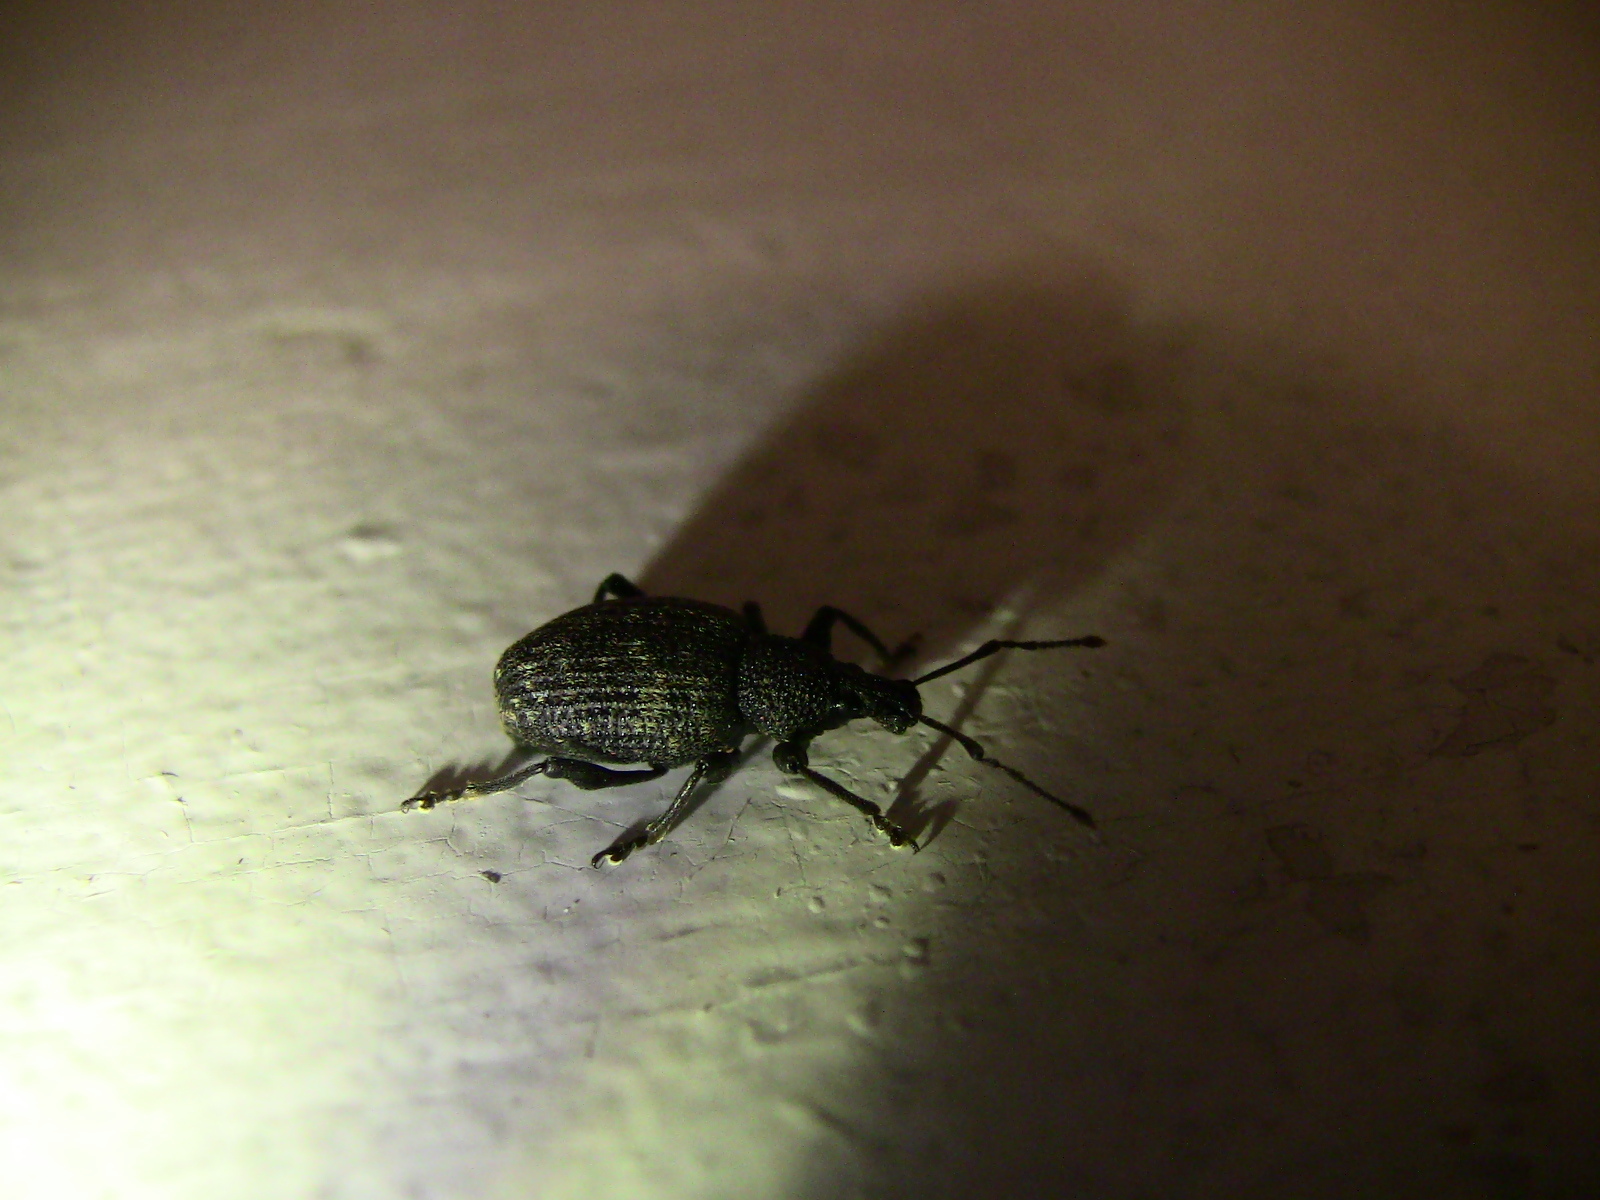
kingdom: Animalia
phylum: Arthropoda
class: Insecta
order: Coleoptera
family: Curculionidae
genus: Otiorhynchus
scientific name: Otiorhynchus sulcatus
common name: Black vine weevil
